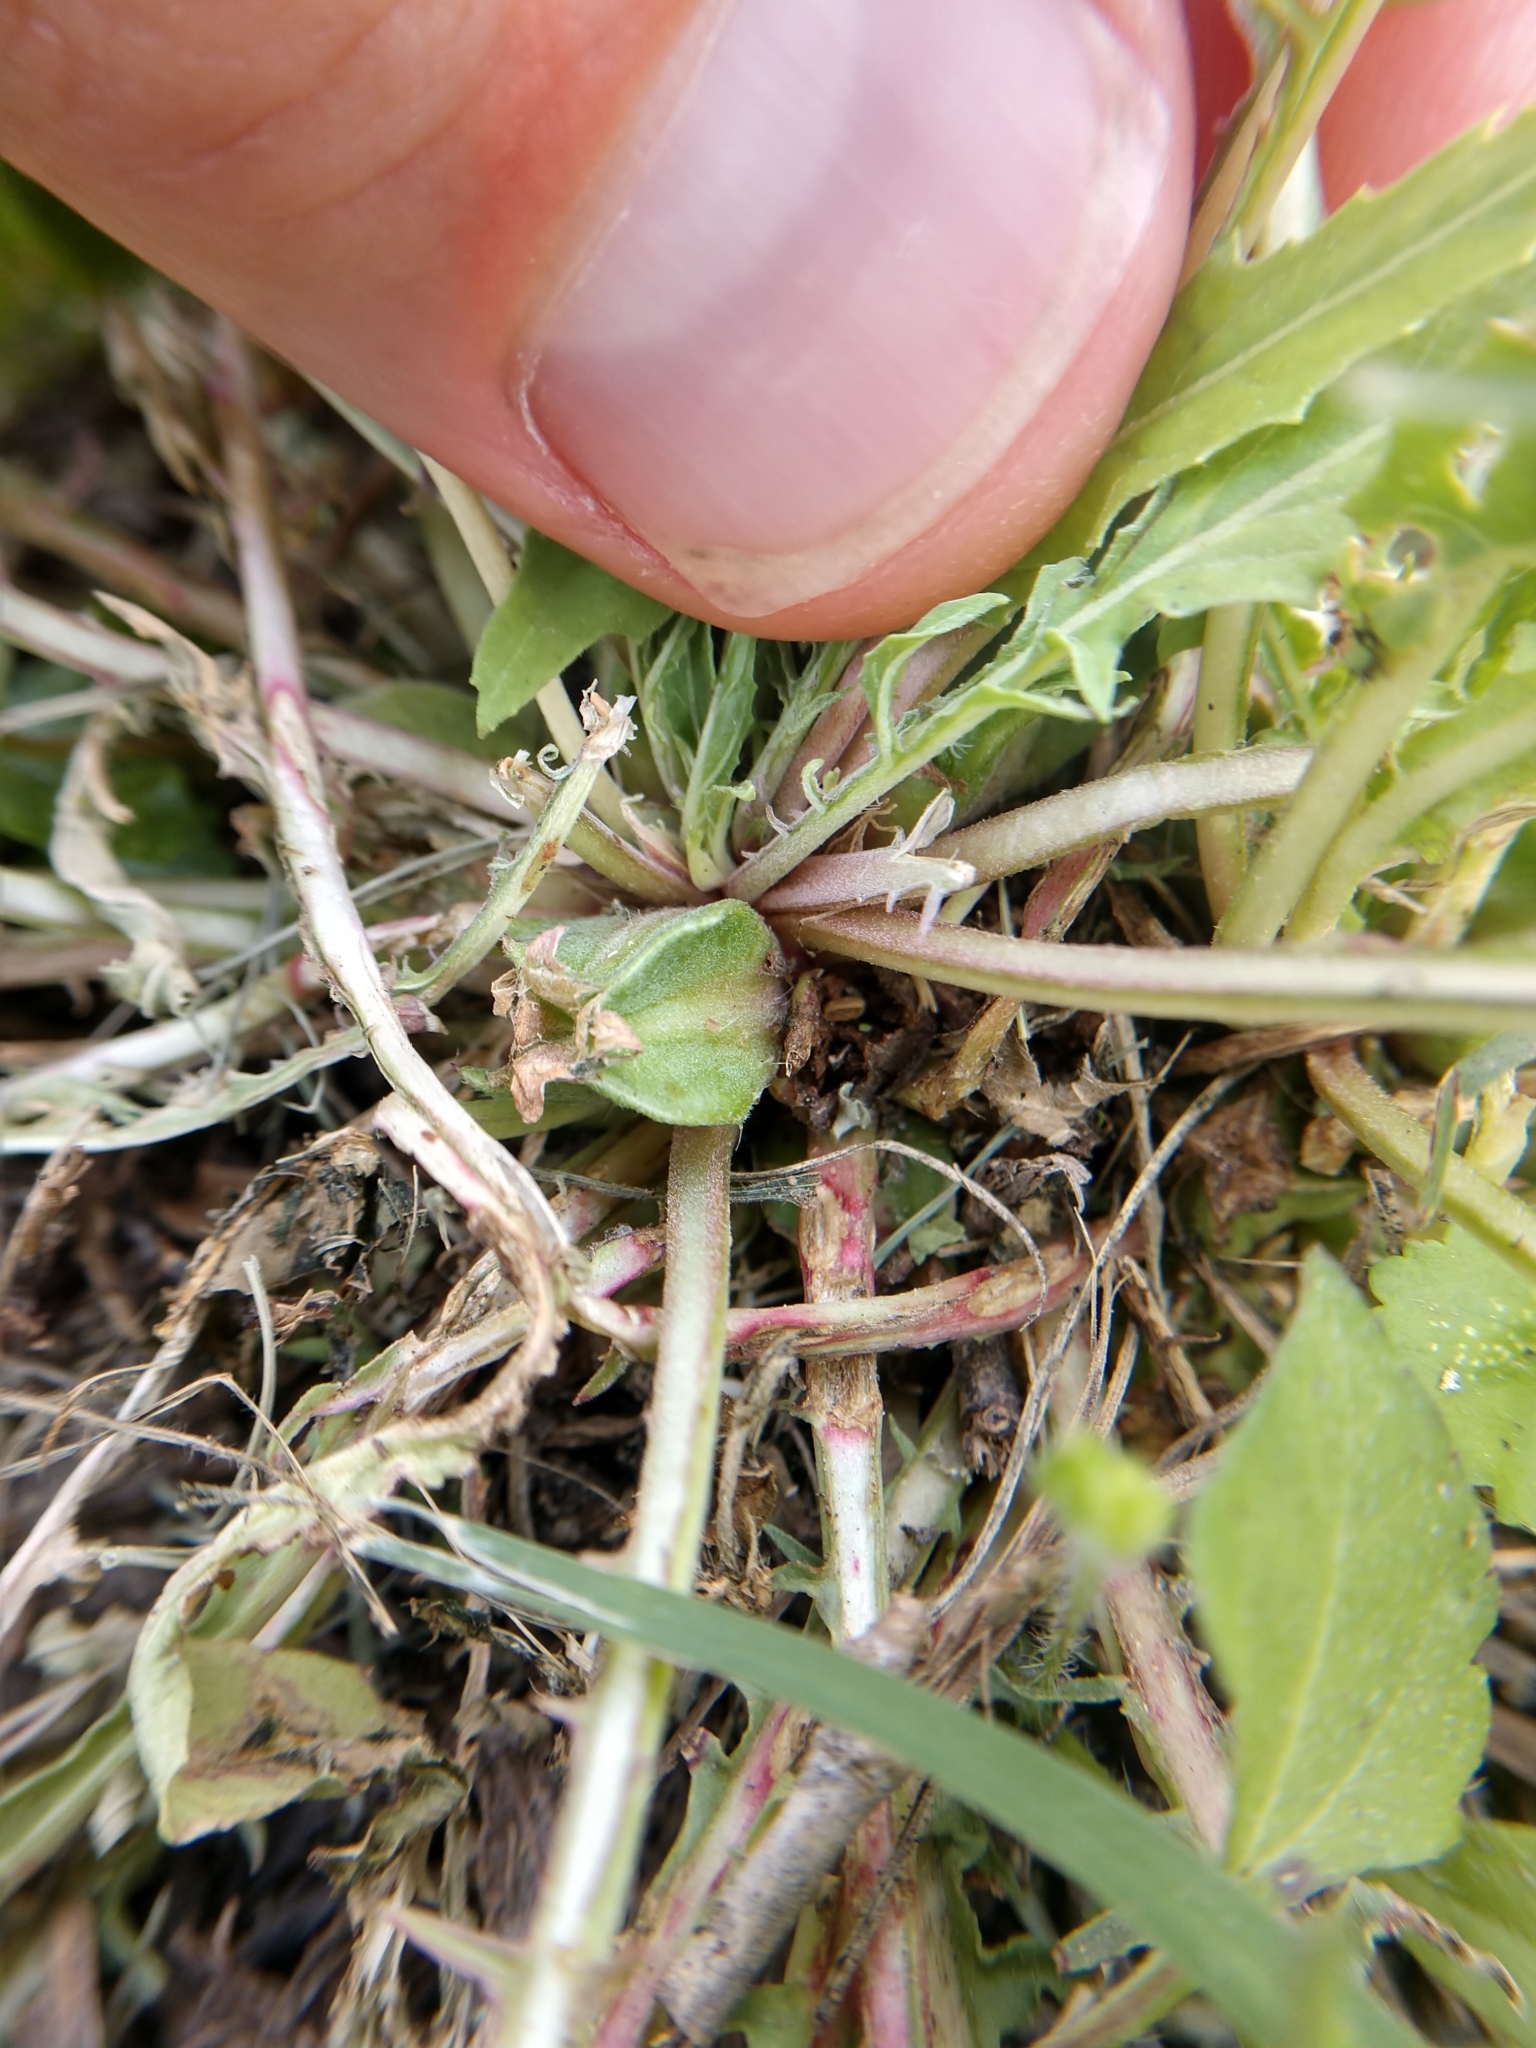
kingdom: Plantae
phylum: Tracheophyta
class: Magnoliopsida
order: Myrtales
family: Onagraceae
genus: Oenothera
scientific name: Oenothera triloba
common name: Sessile evening-primrose
